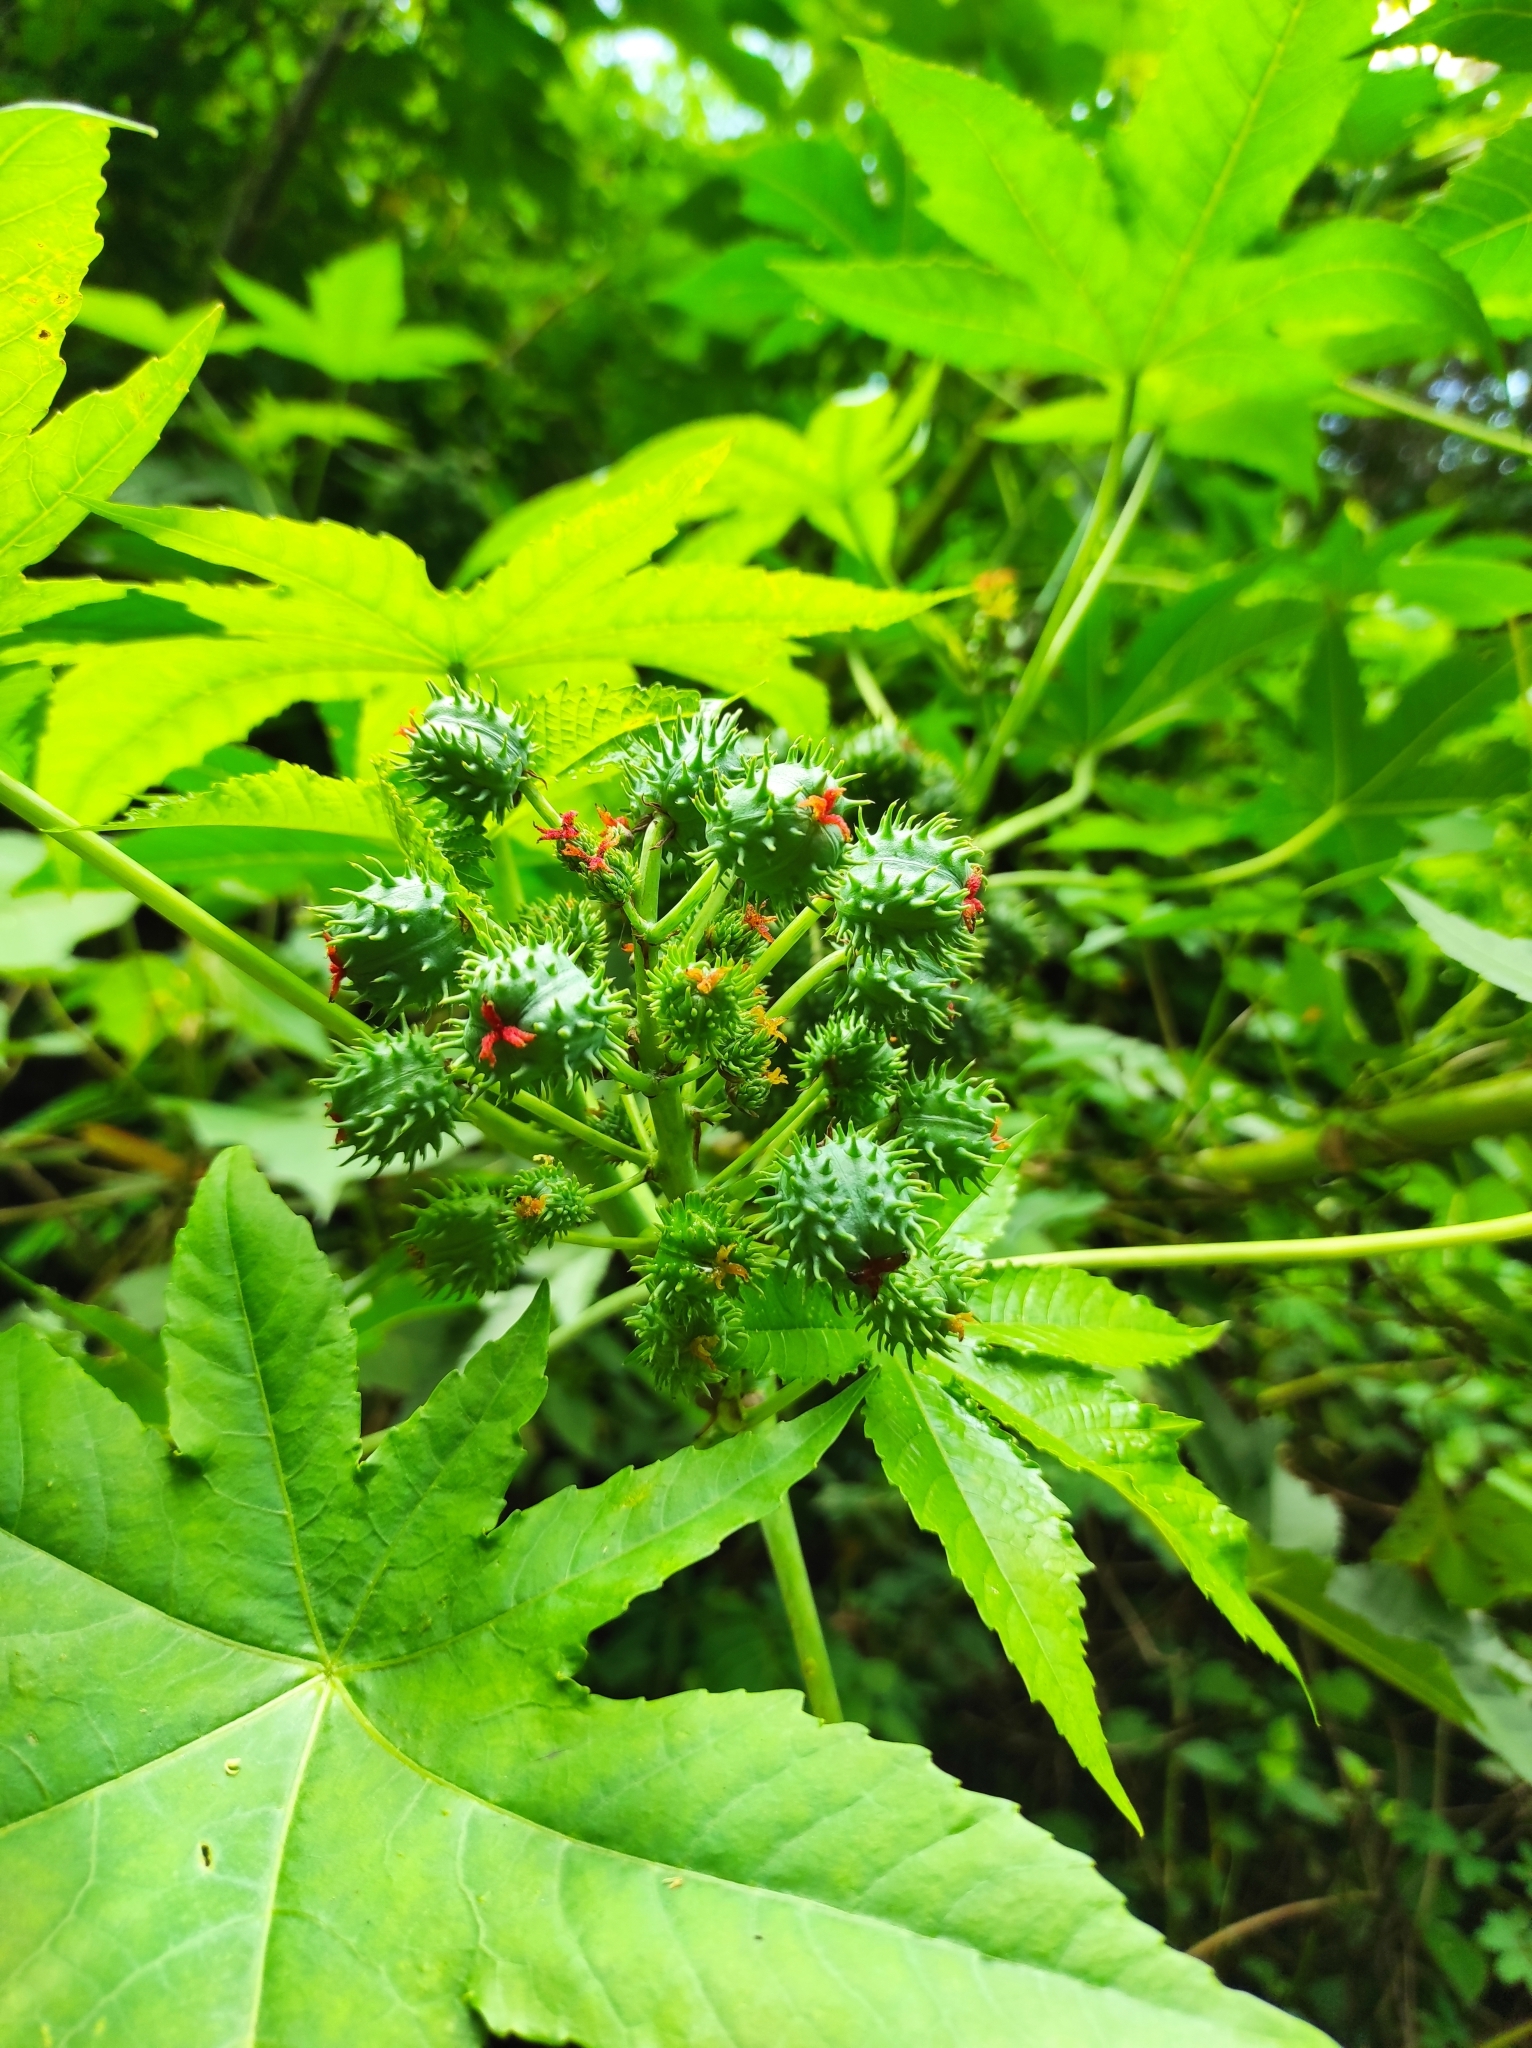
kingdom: Plantae
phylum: Tracheophyta
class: Magnoliopsida
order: Malpighiales
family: Euphorbiaceae
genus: Ricinus
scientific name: Ricinus communis
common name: Castor-oil-plant
